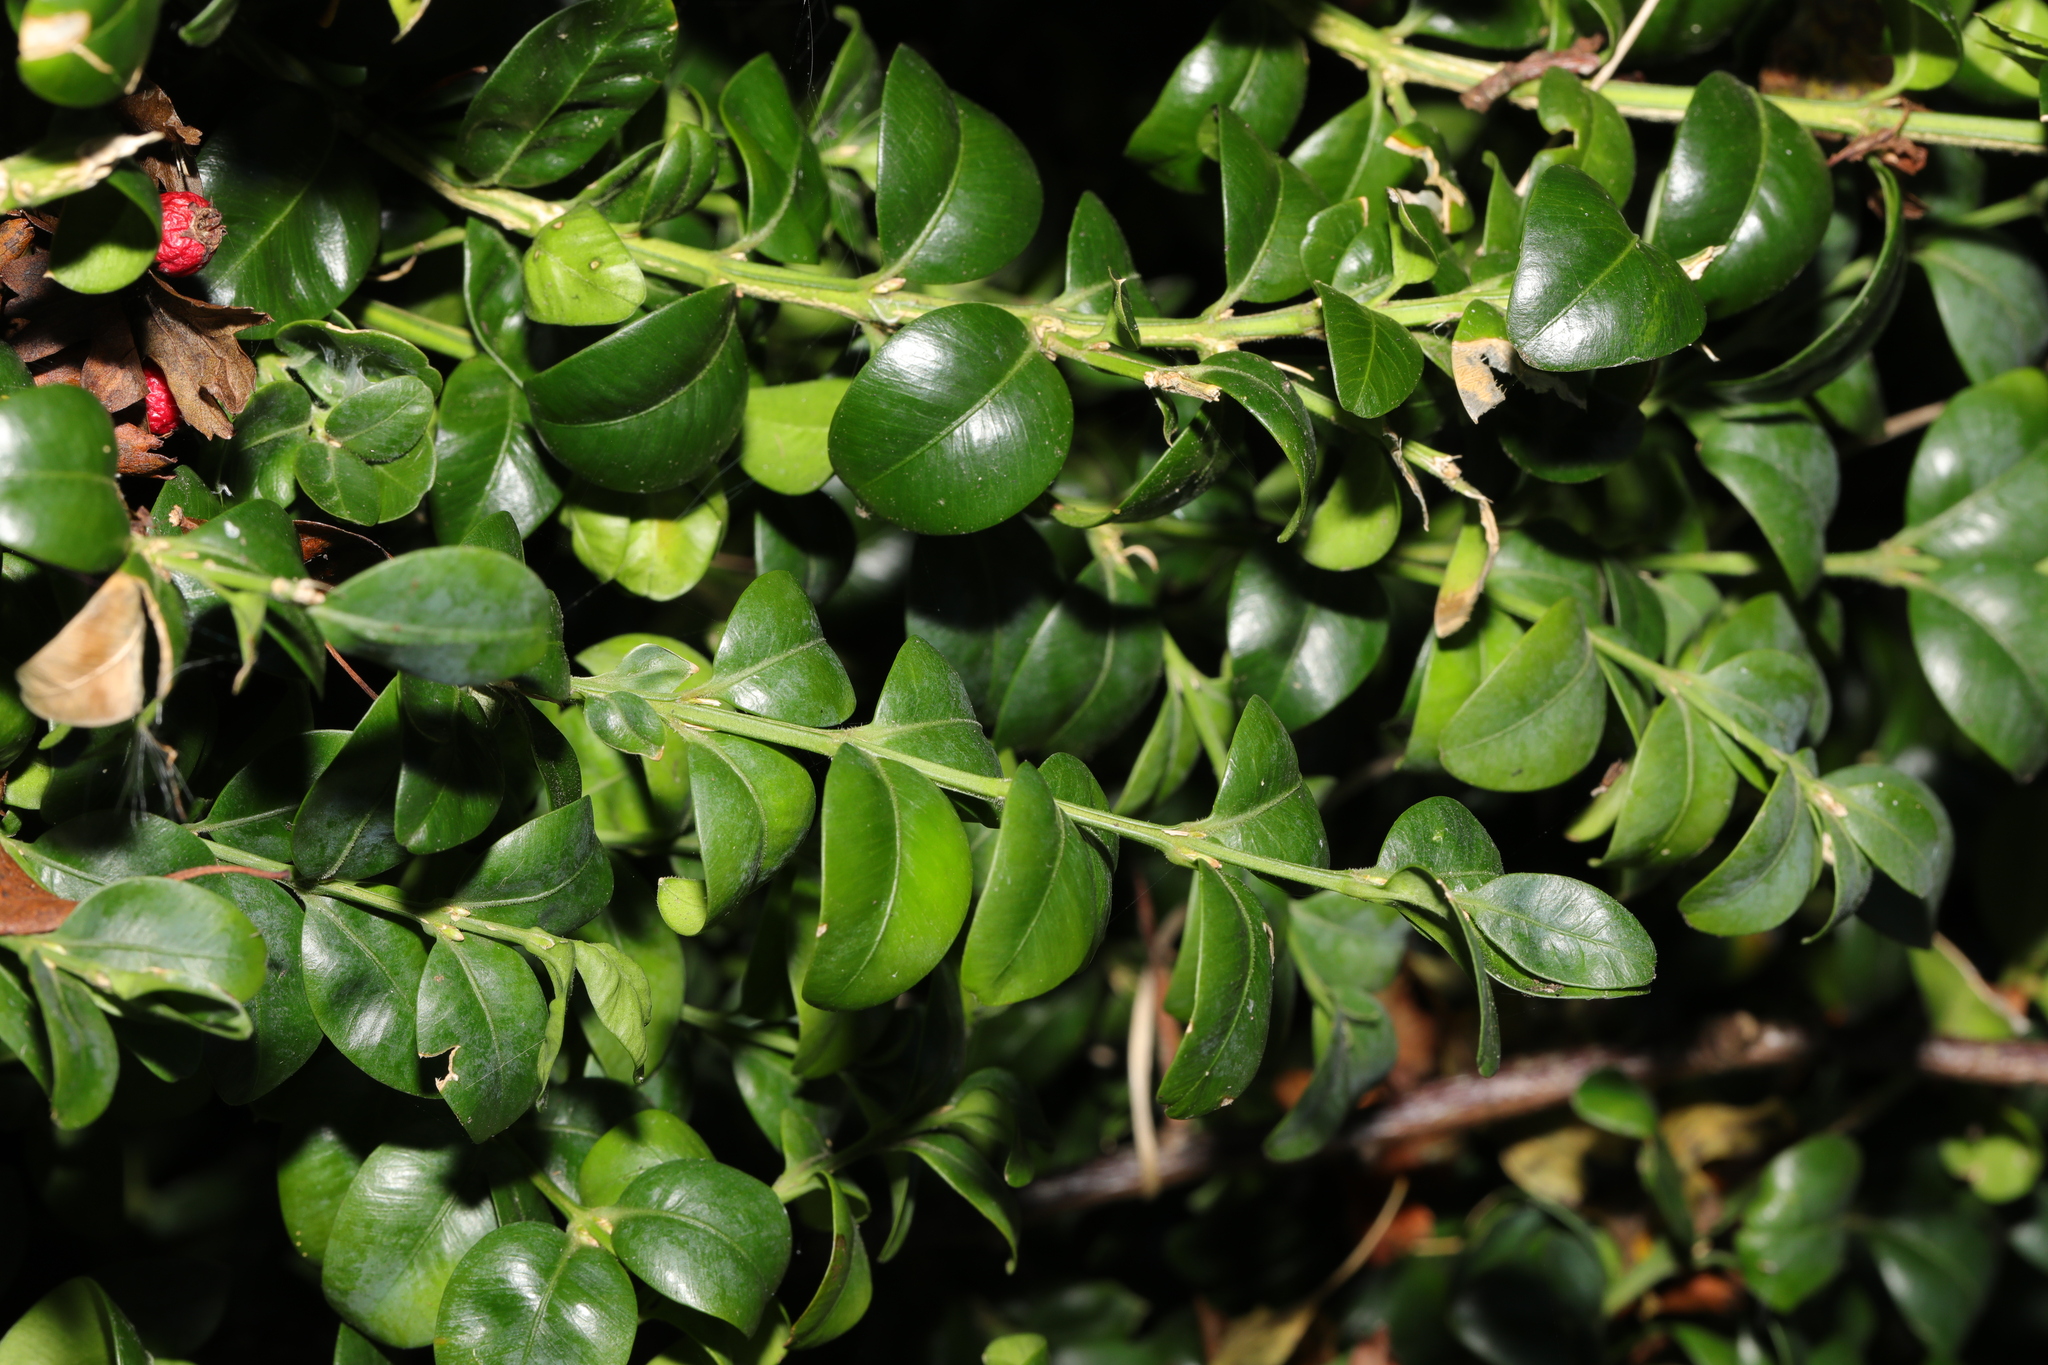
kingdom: Plantae
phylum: Tracheophyta
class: Magnoliopsida
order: Buxales
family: Buxaceae
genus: Buxus
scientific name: Buxus sempervirens
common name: Box
